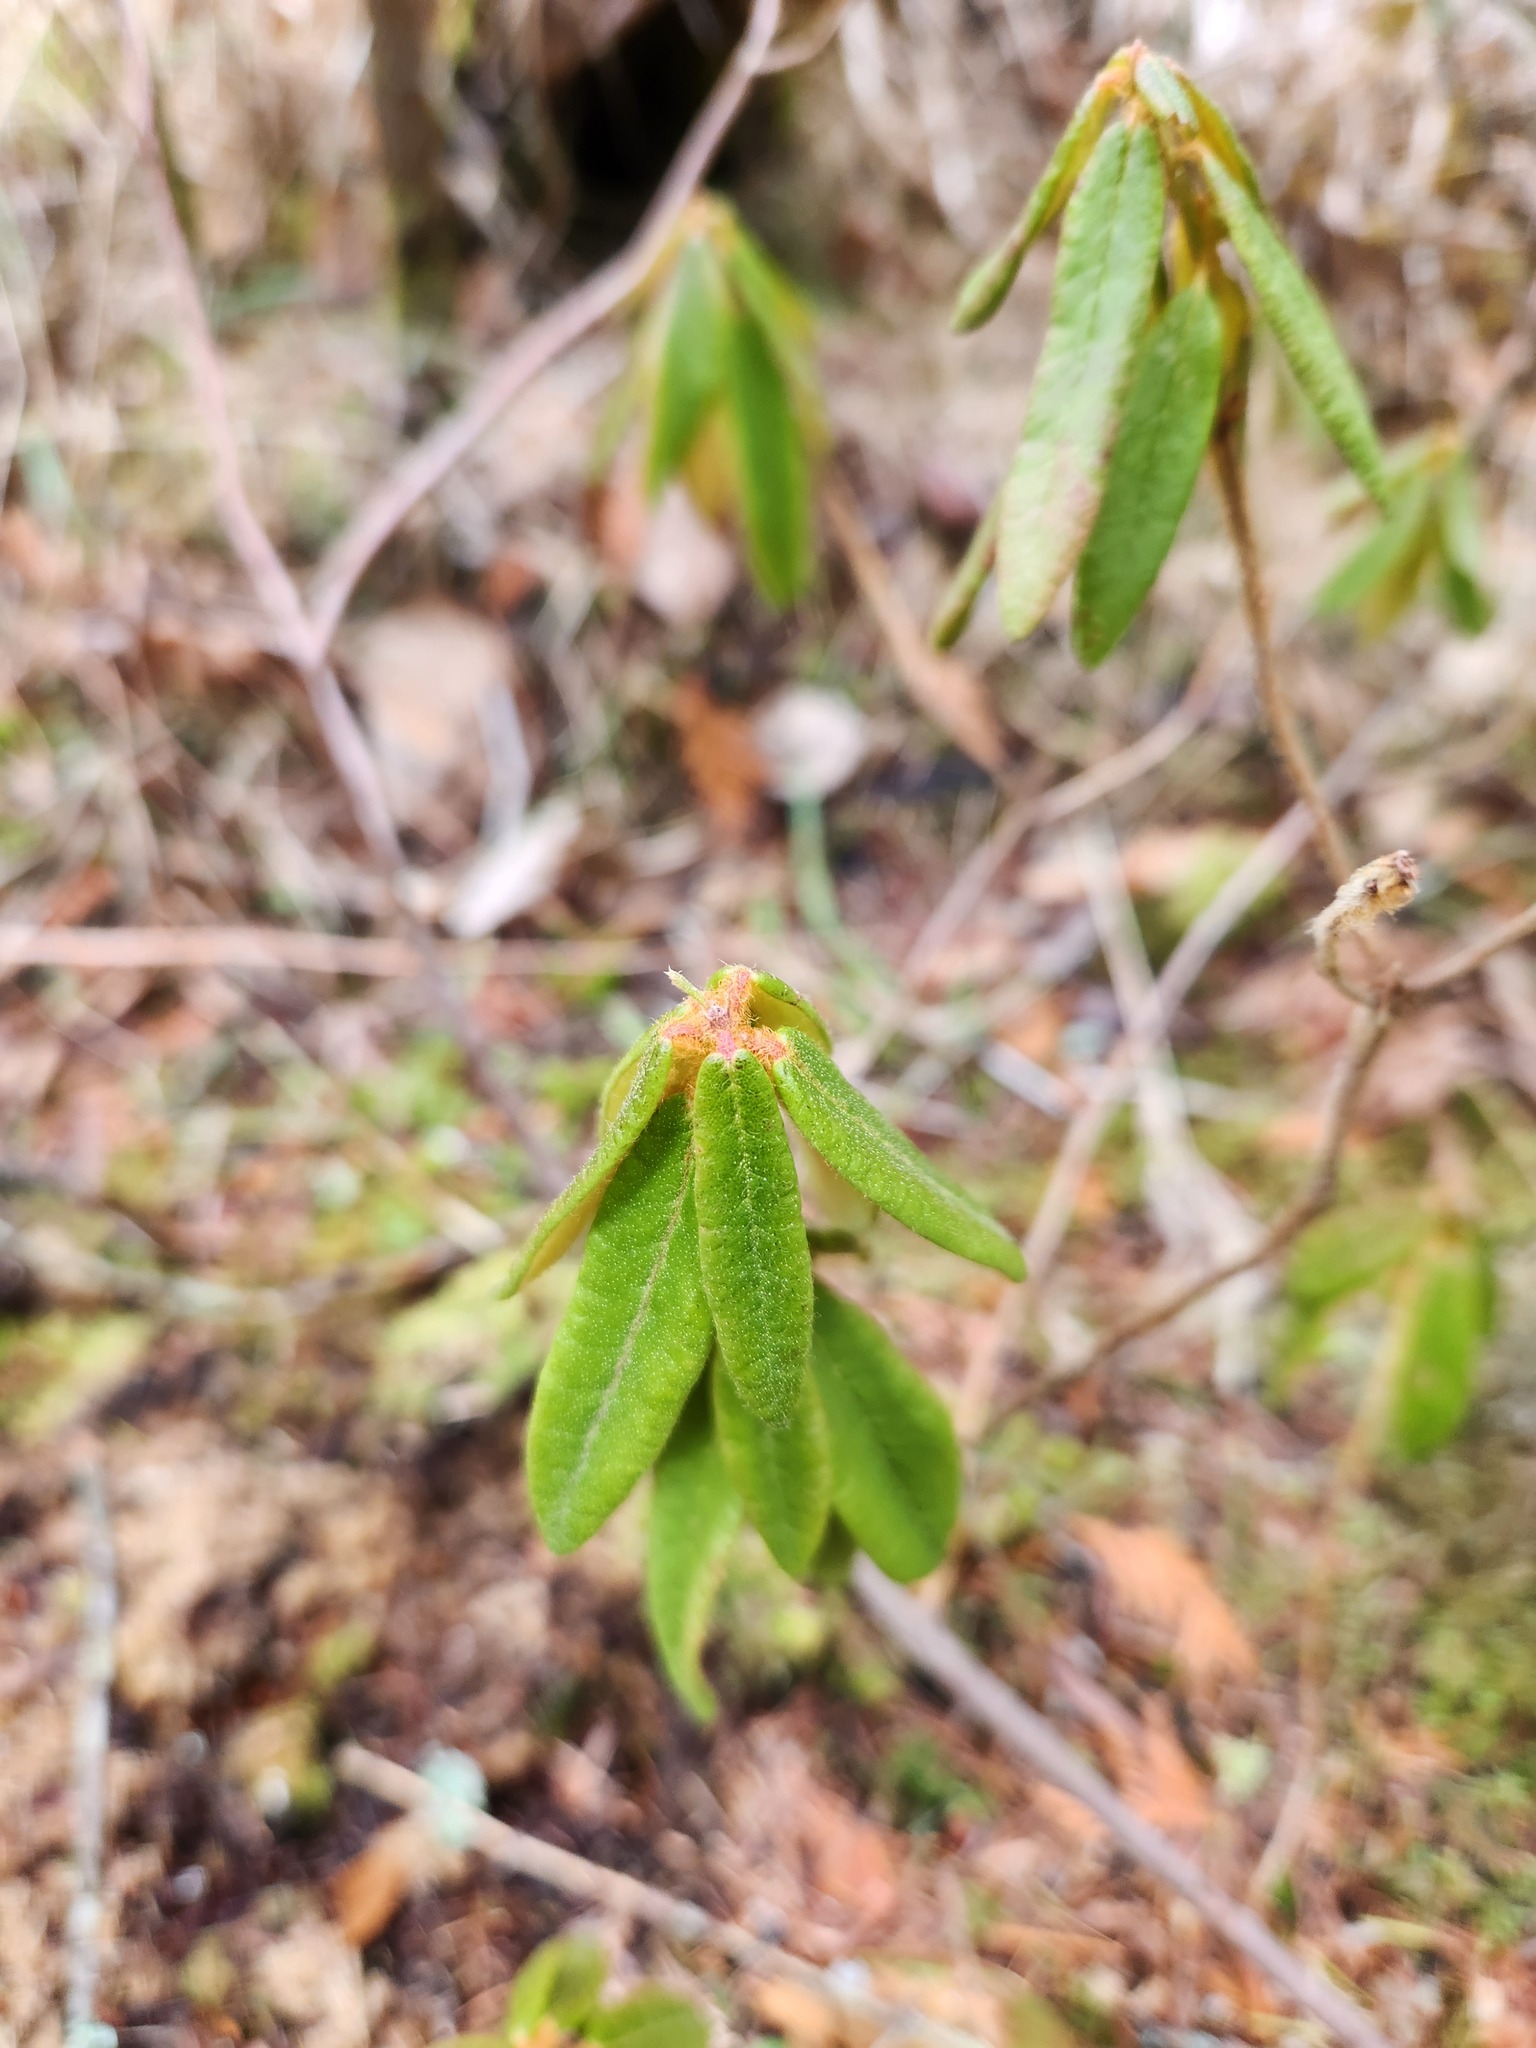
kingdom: Plantae
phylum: Tracheophyta
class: Magnoliopsida
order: Ericales
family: Ericaceae
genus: Rhododendron
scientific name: Rhododendron groenlandicum
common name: Bog labrador tea
